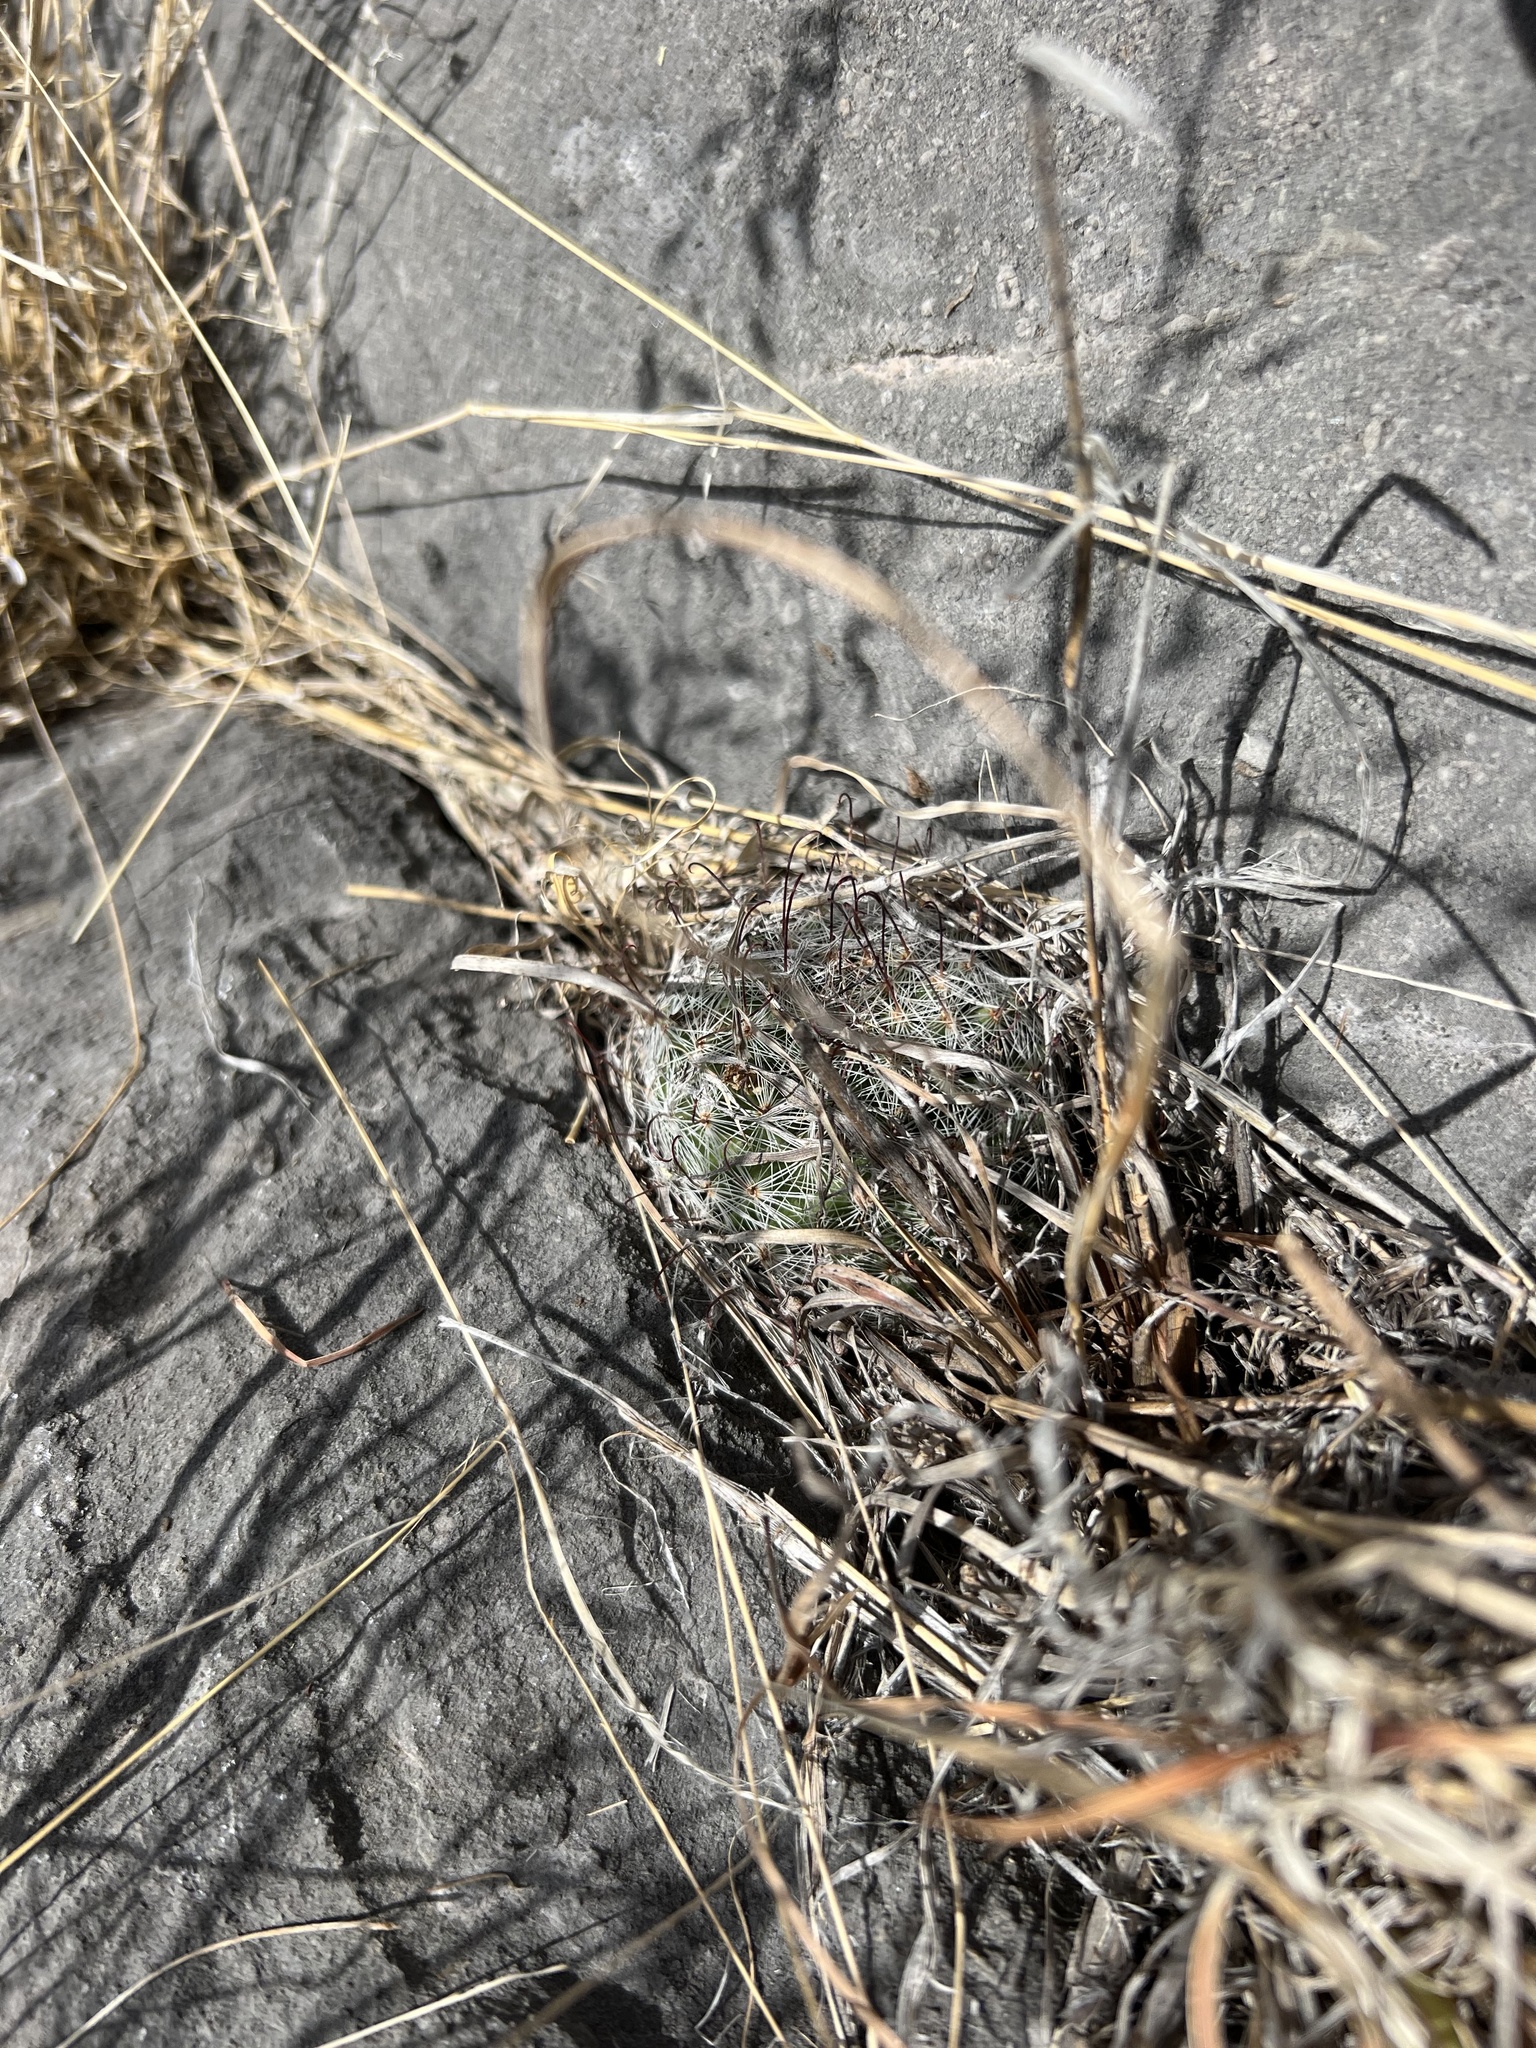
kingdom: Plantae
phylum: Tracheophyta
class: Magnoliopsida
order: Caryophyllales
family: Cactaceae
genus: Cochemiea
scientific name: Cochemiea grahamii
